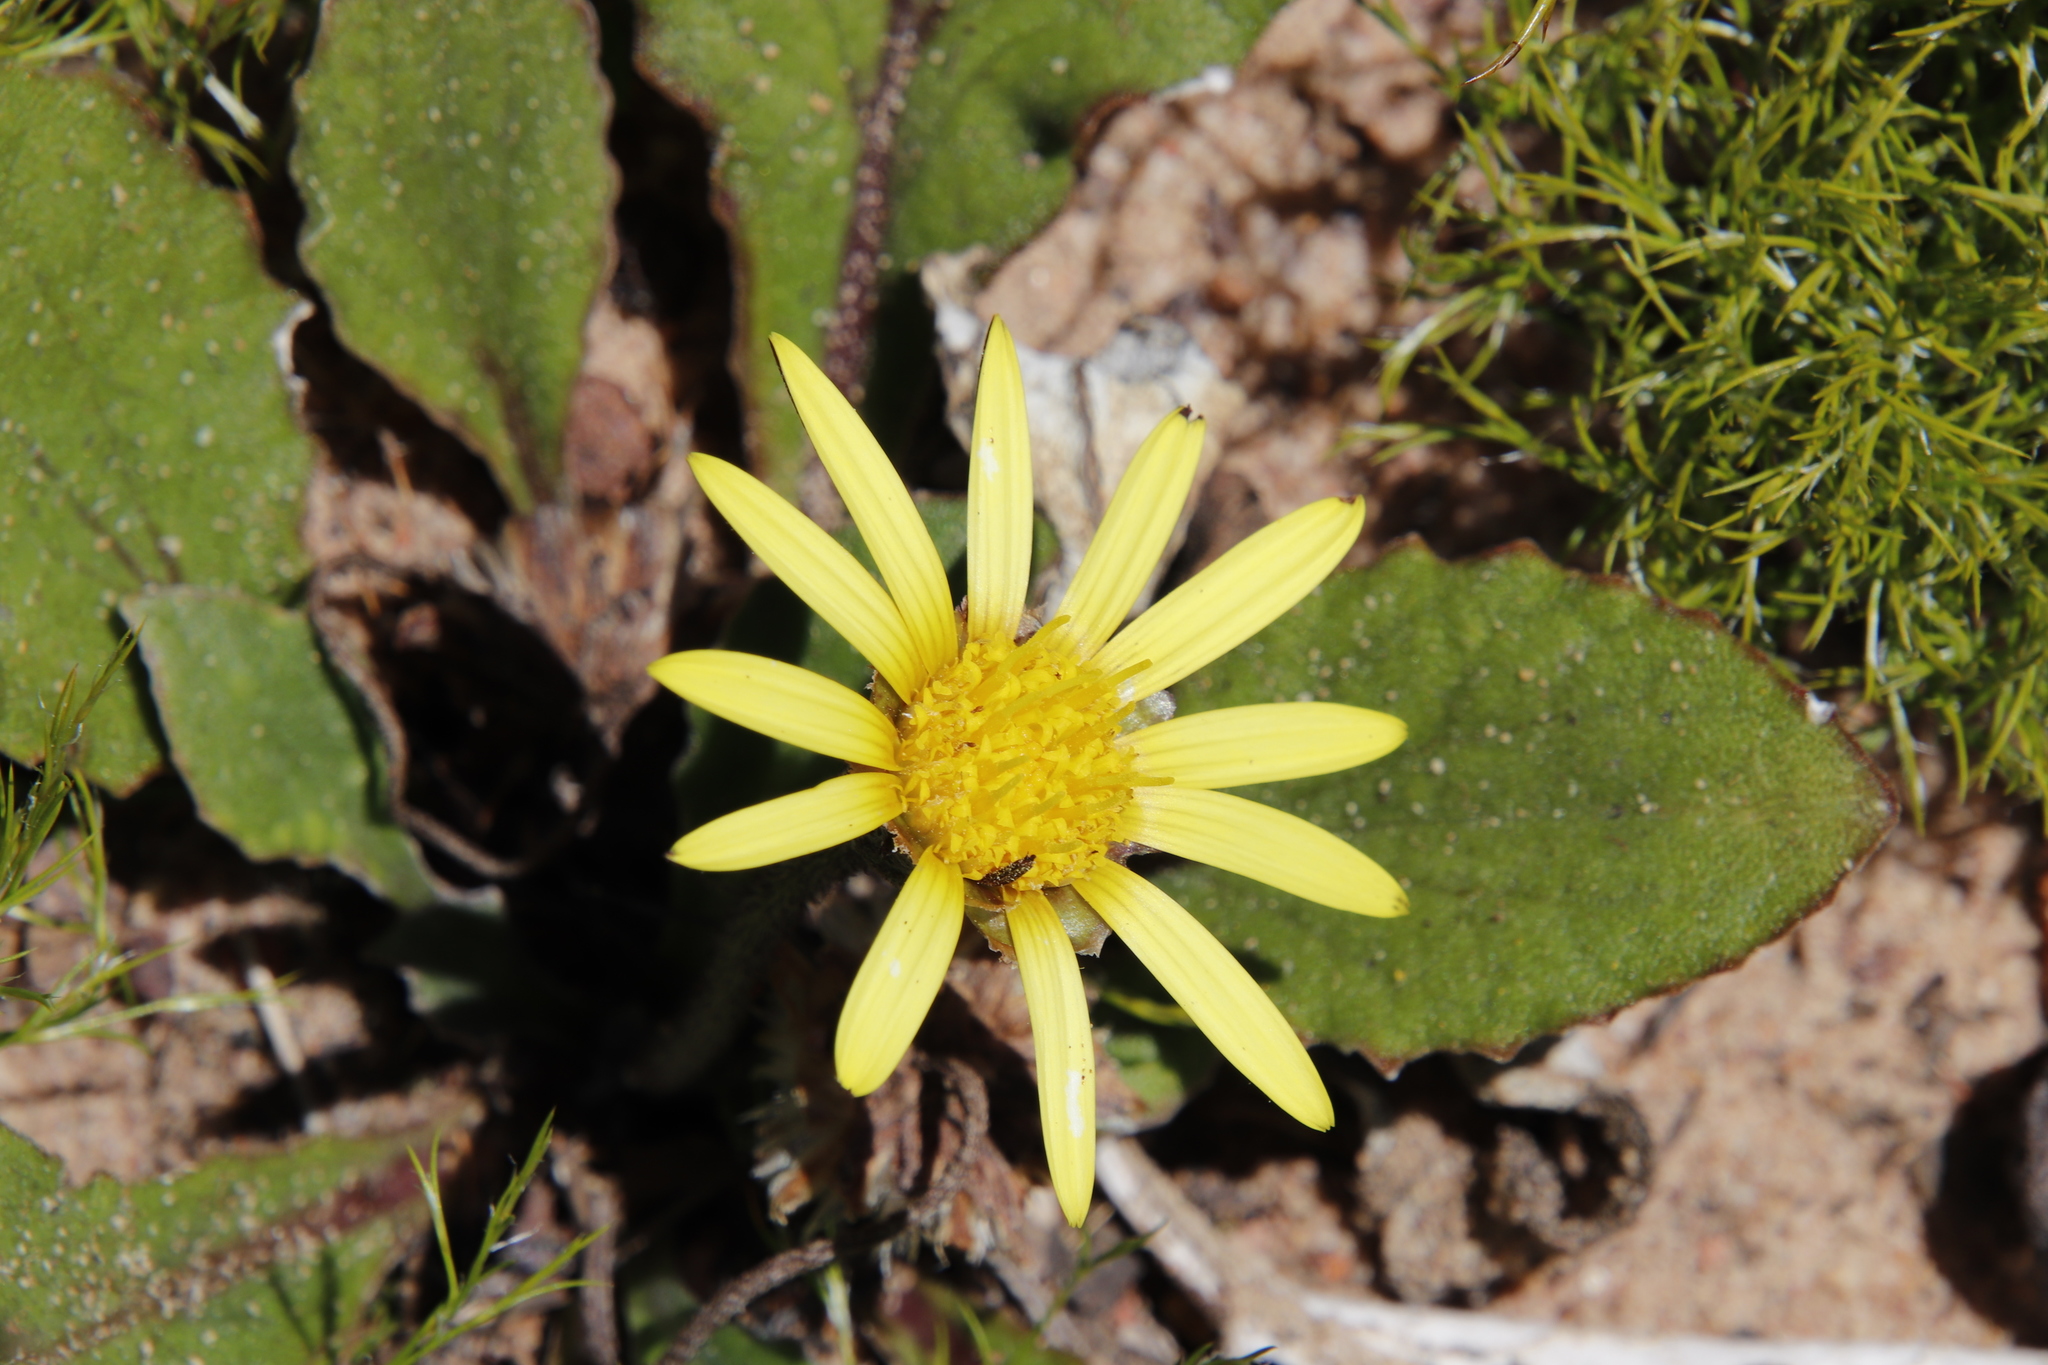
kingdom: Plantae
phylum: Tracheophyta
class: Magnoliopsida
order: Asterales
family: Asteraceae
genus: Haplocarpha
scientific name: Haplocarpha lanata
